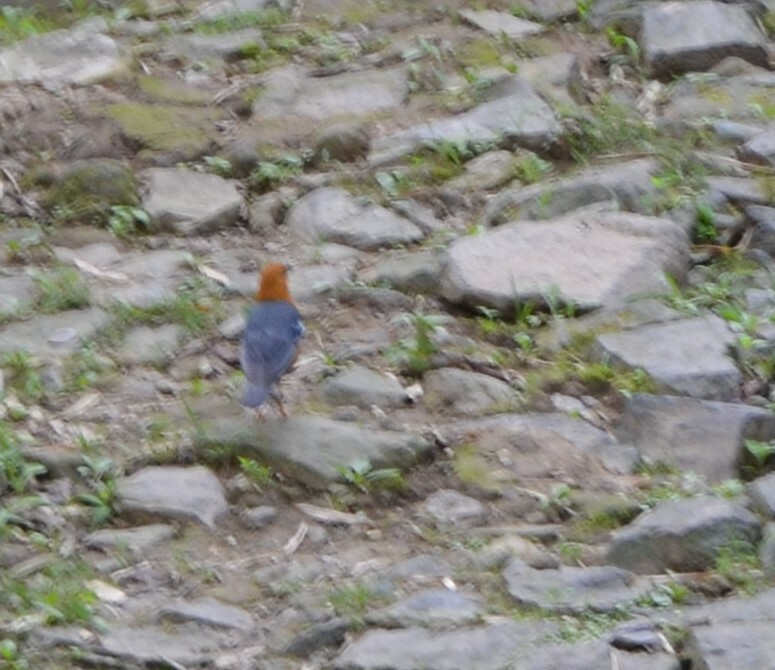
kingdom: Animalia
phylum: Chordata
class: Aves
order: Passeriformes
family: Turdidae
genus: Geokichla
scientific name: Geokichla citrina
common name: Orange-headed thrush
